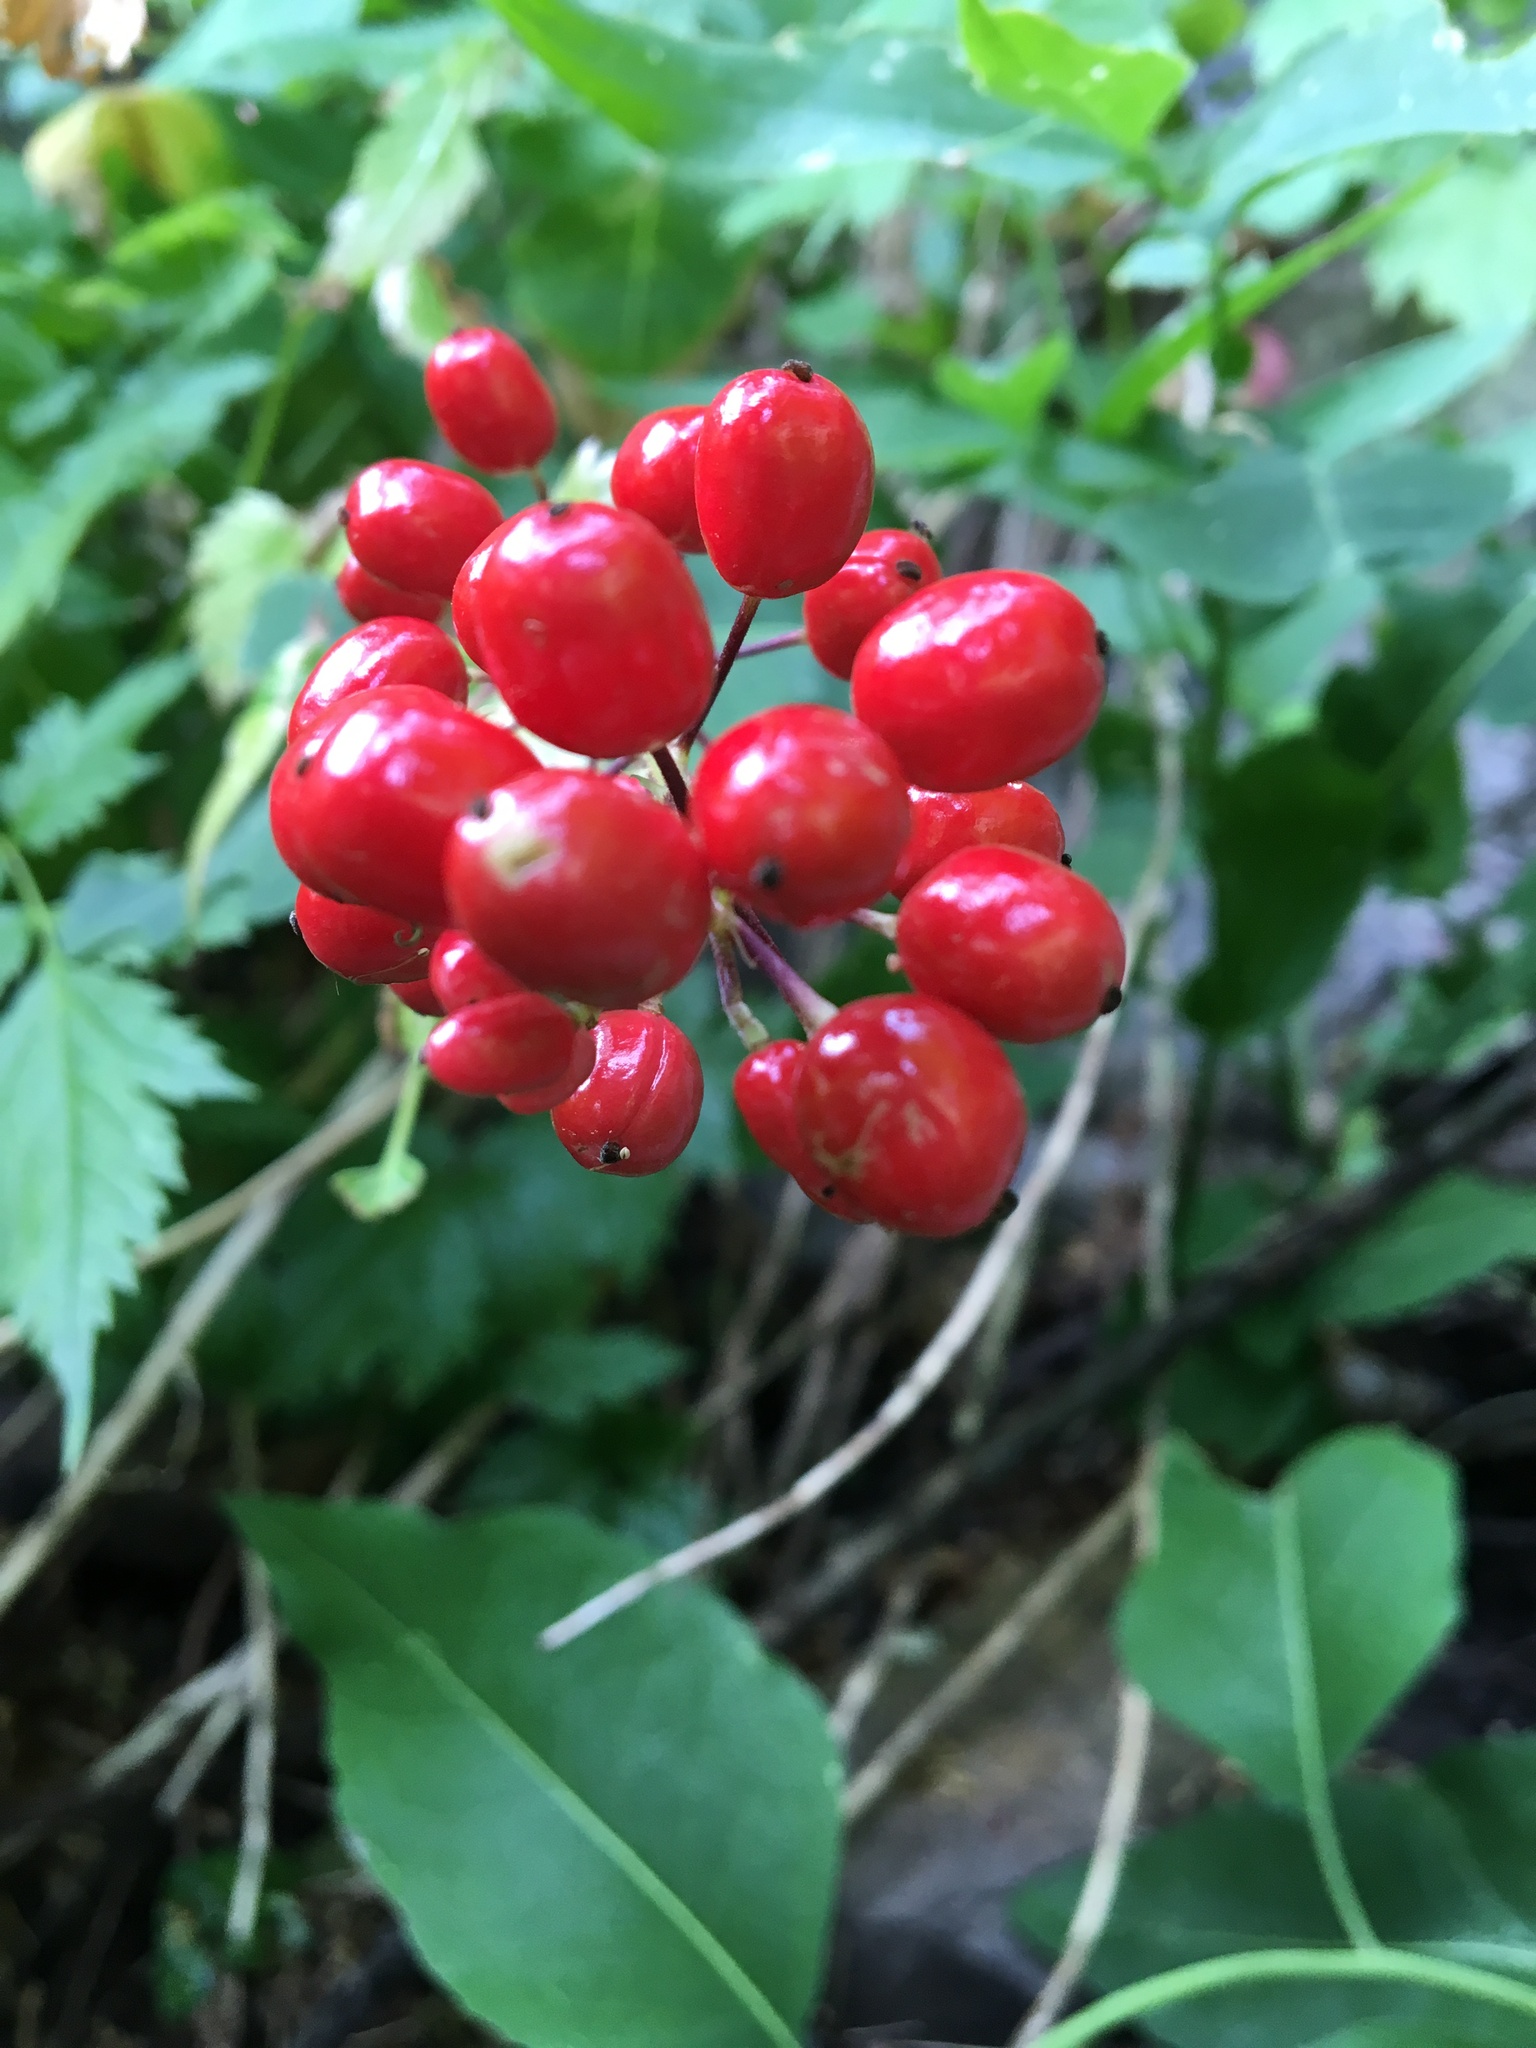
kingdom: Plantae
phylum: Tracheophyta
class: Magnoliopsida
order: Ranunculales
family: Ranunculaceae
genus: Actaea
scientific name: Actaea rubra
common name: Red baneberry
